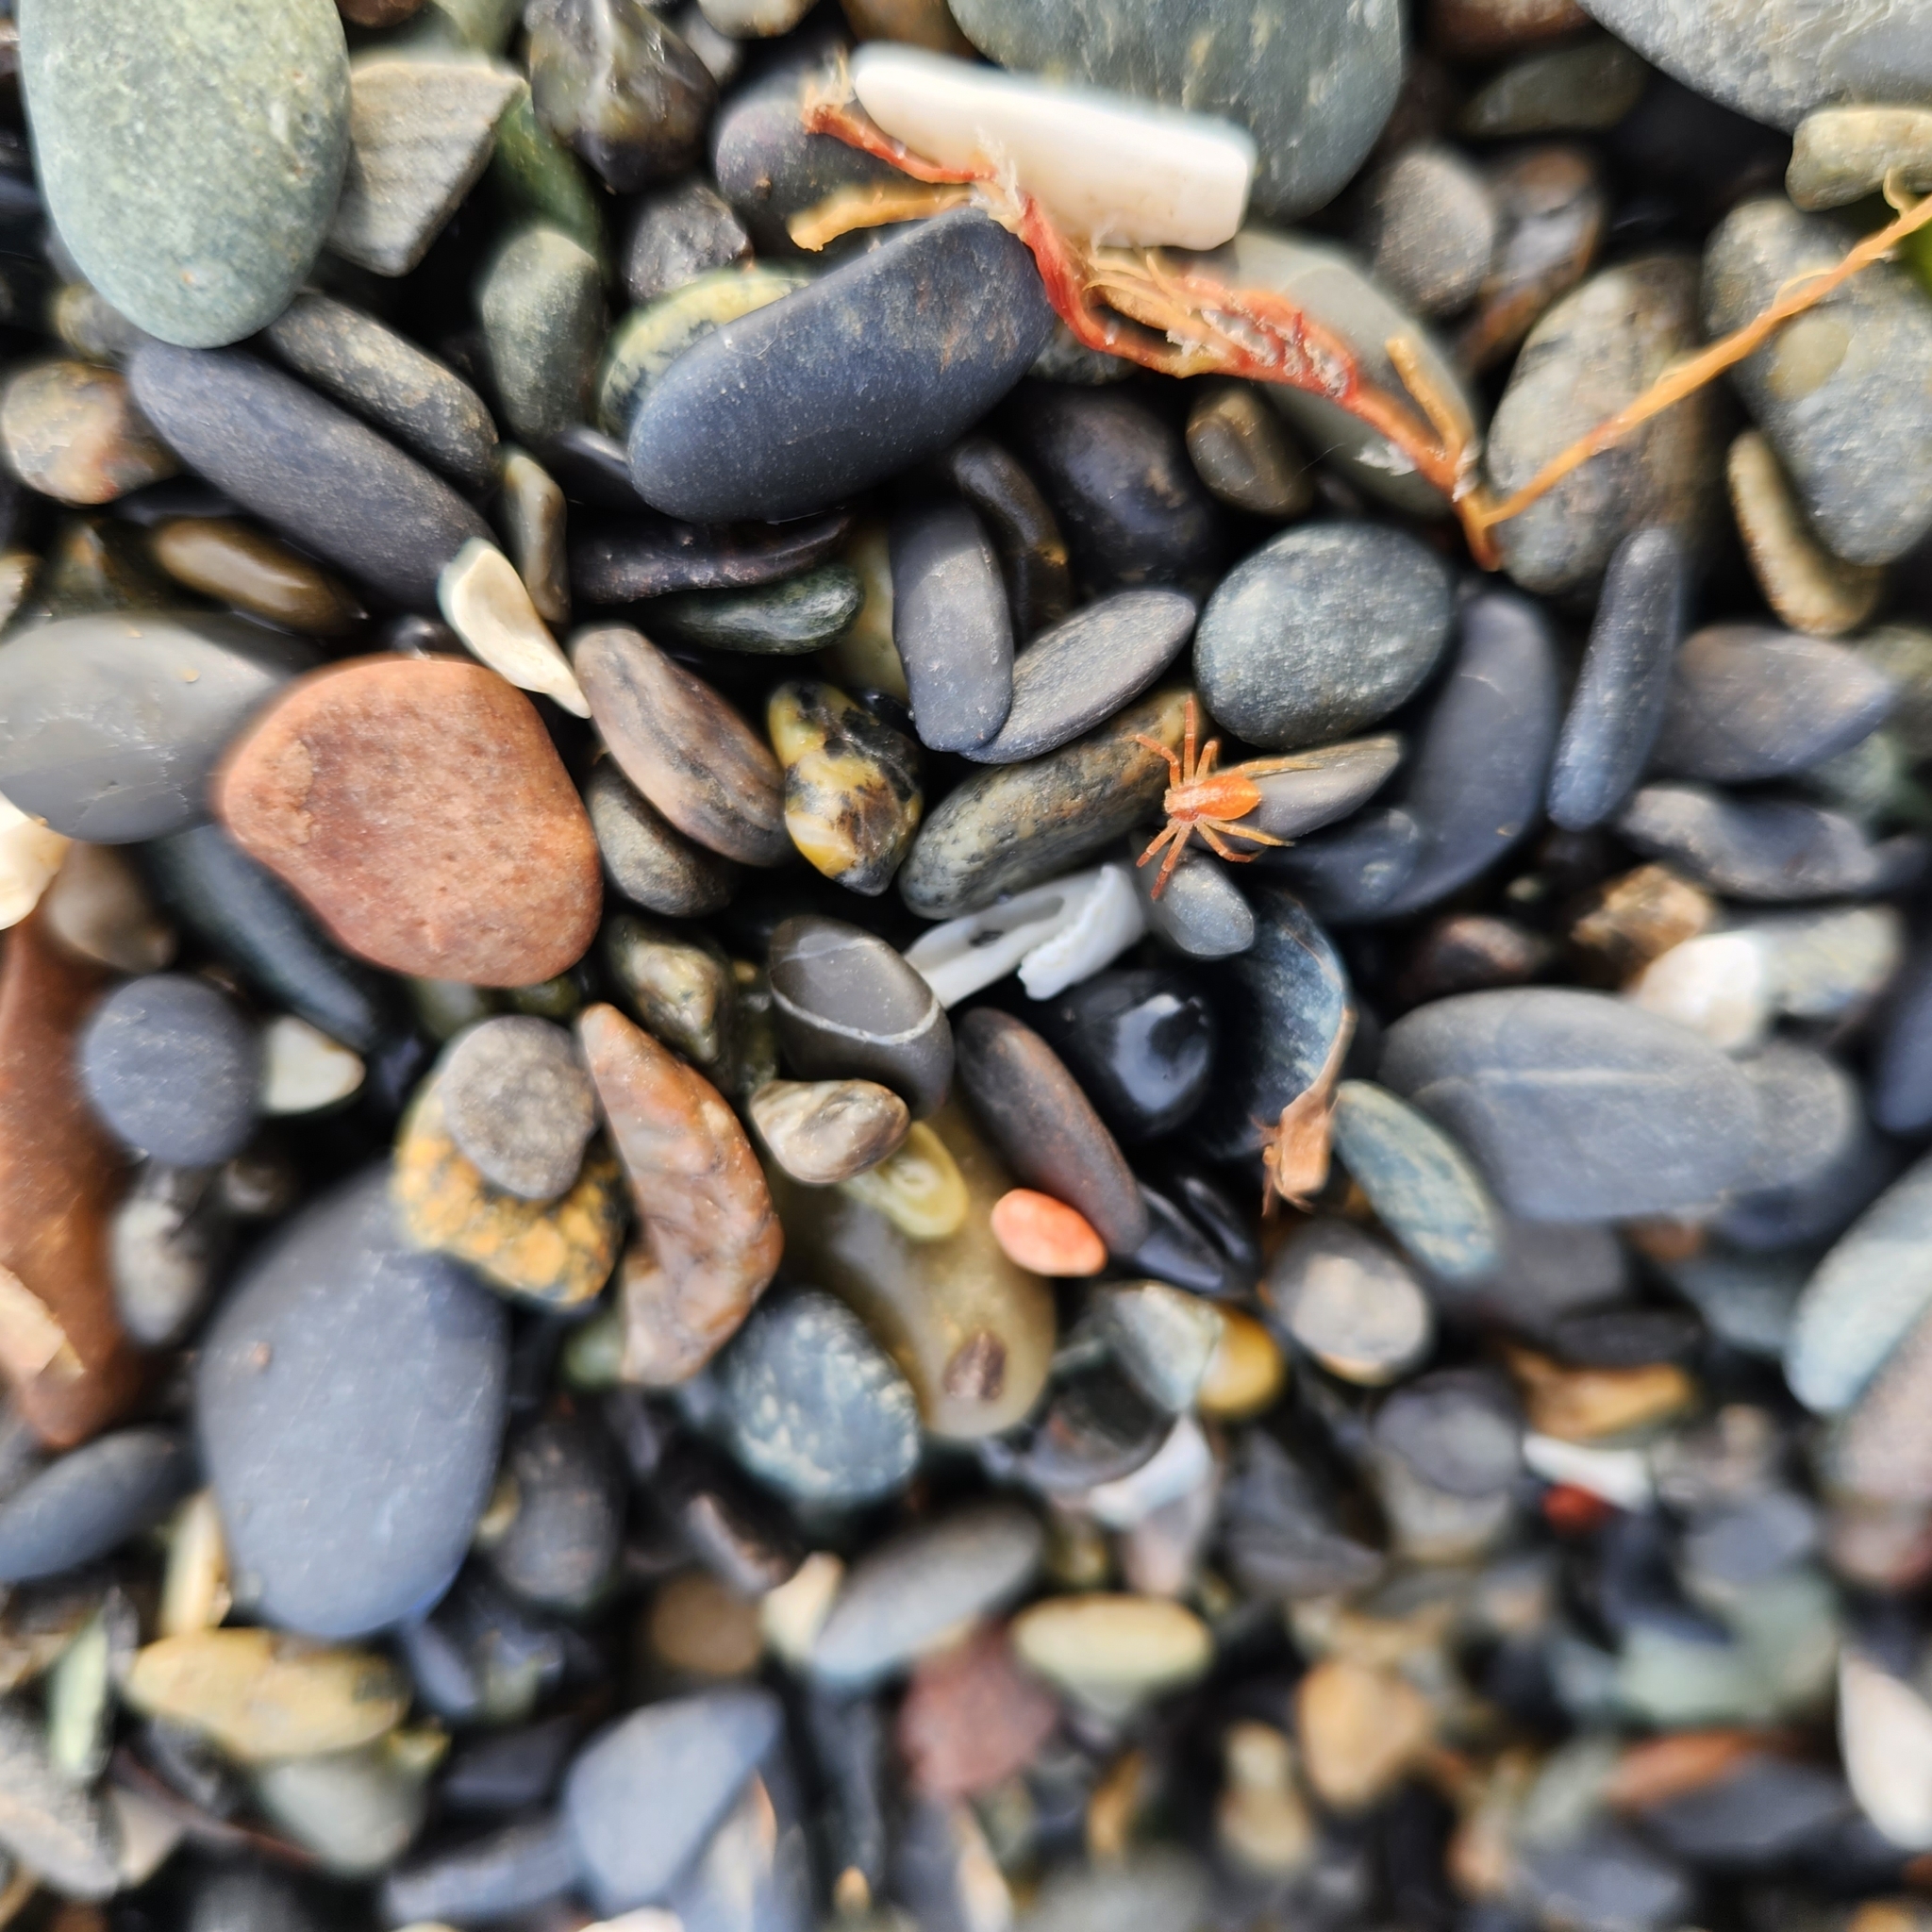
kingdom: Animalia
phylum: Arthropoda
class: Arachnida
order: Araneae
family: Philodromidae
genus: Philodromus
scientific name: Philodromus rufus
